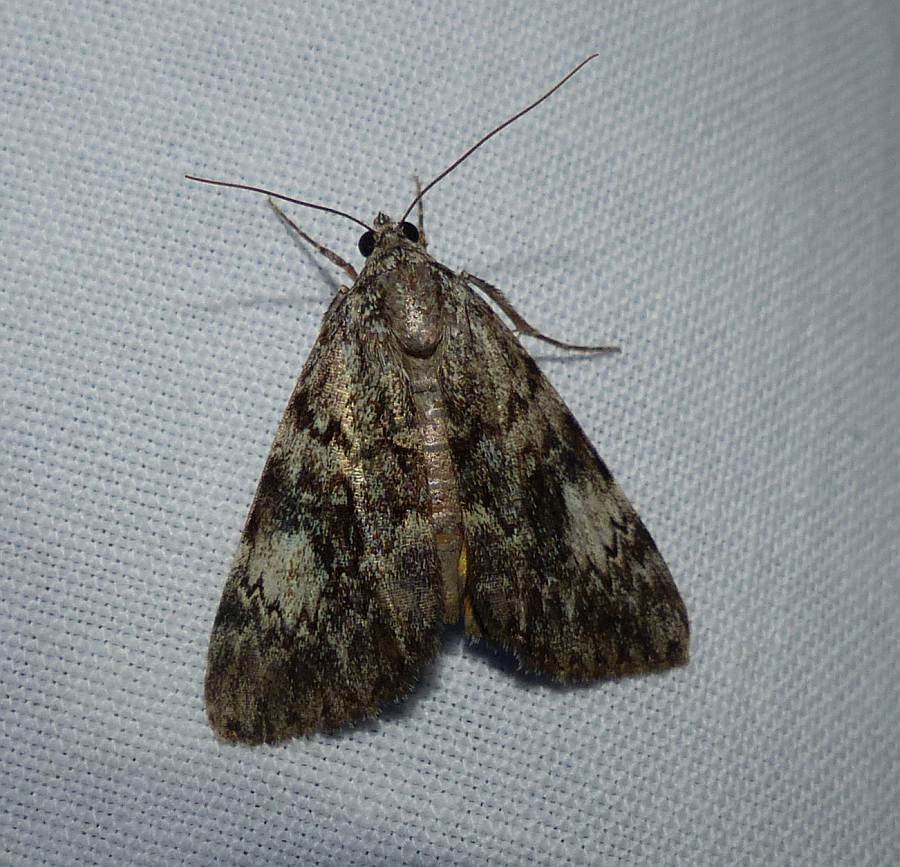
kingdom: Animalia
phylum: Arthropoda
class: Insecta
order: Lepidoptera
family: Erebidae
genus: Catocala
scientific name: Catocala lineella
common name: Little lined underwing
